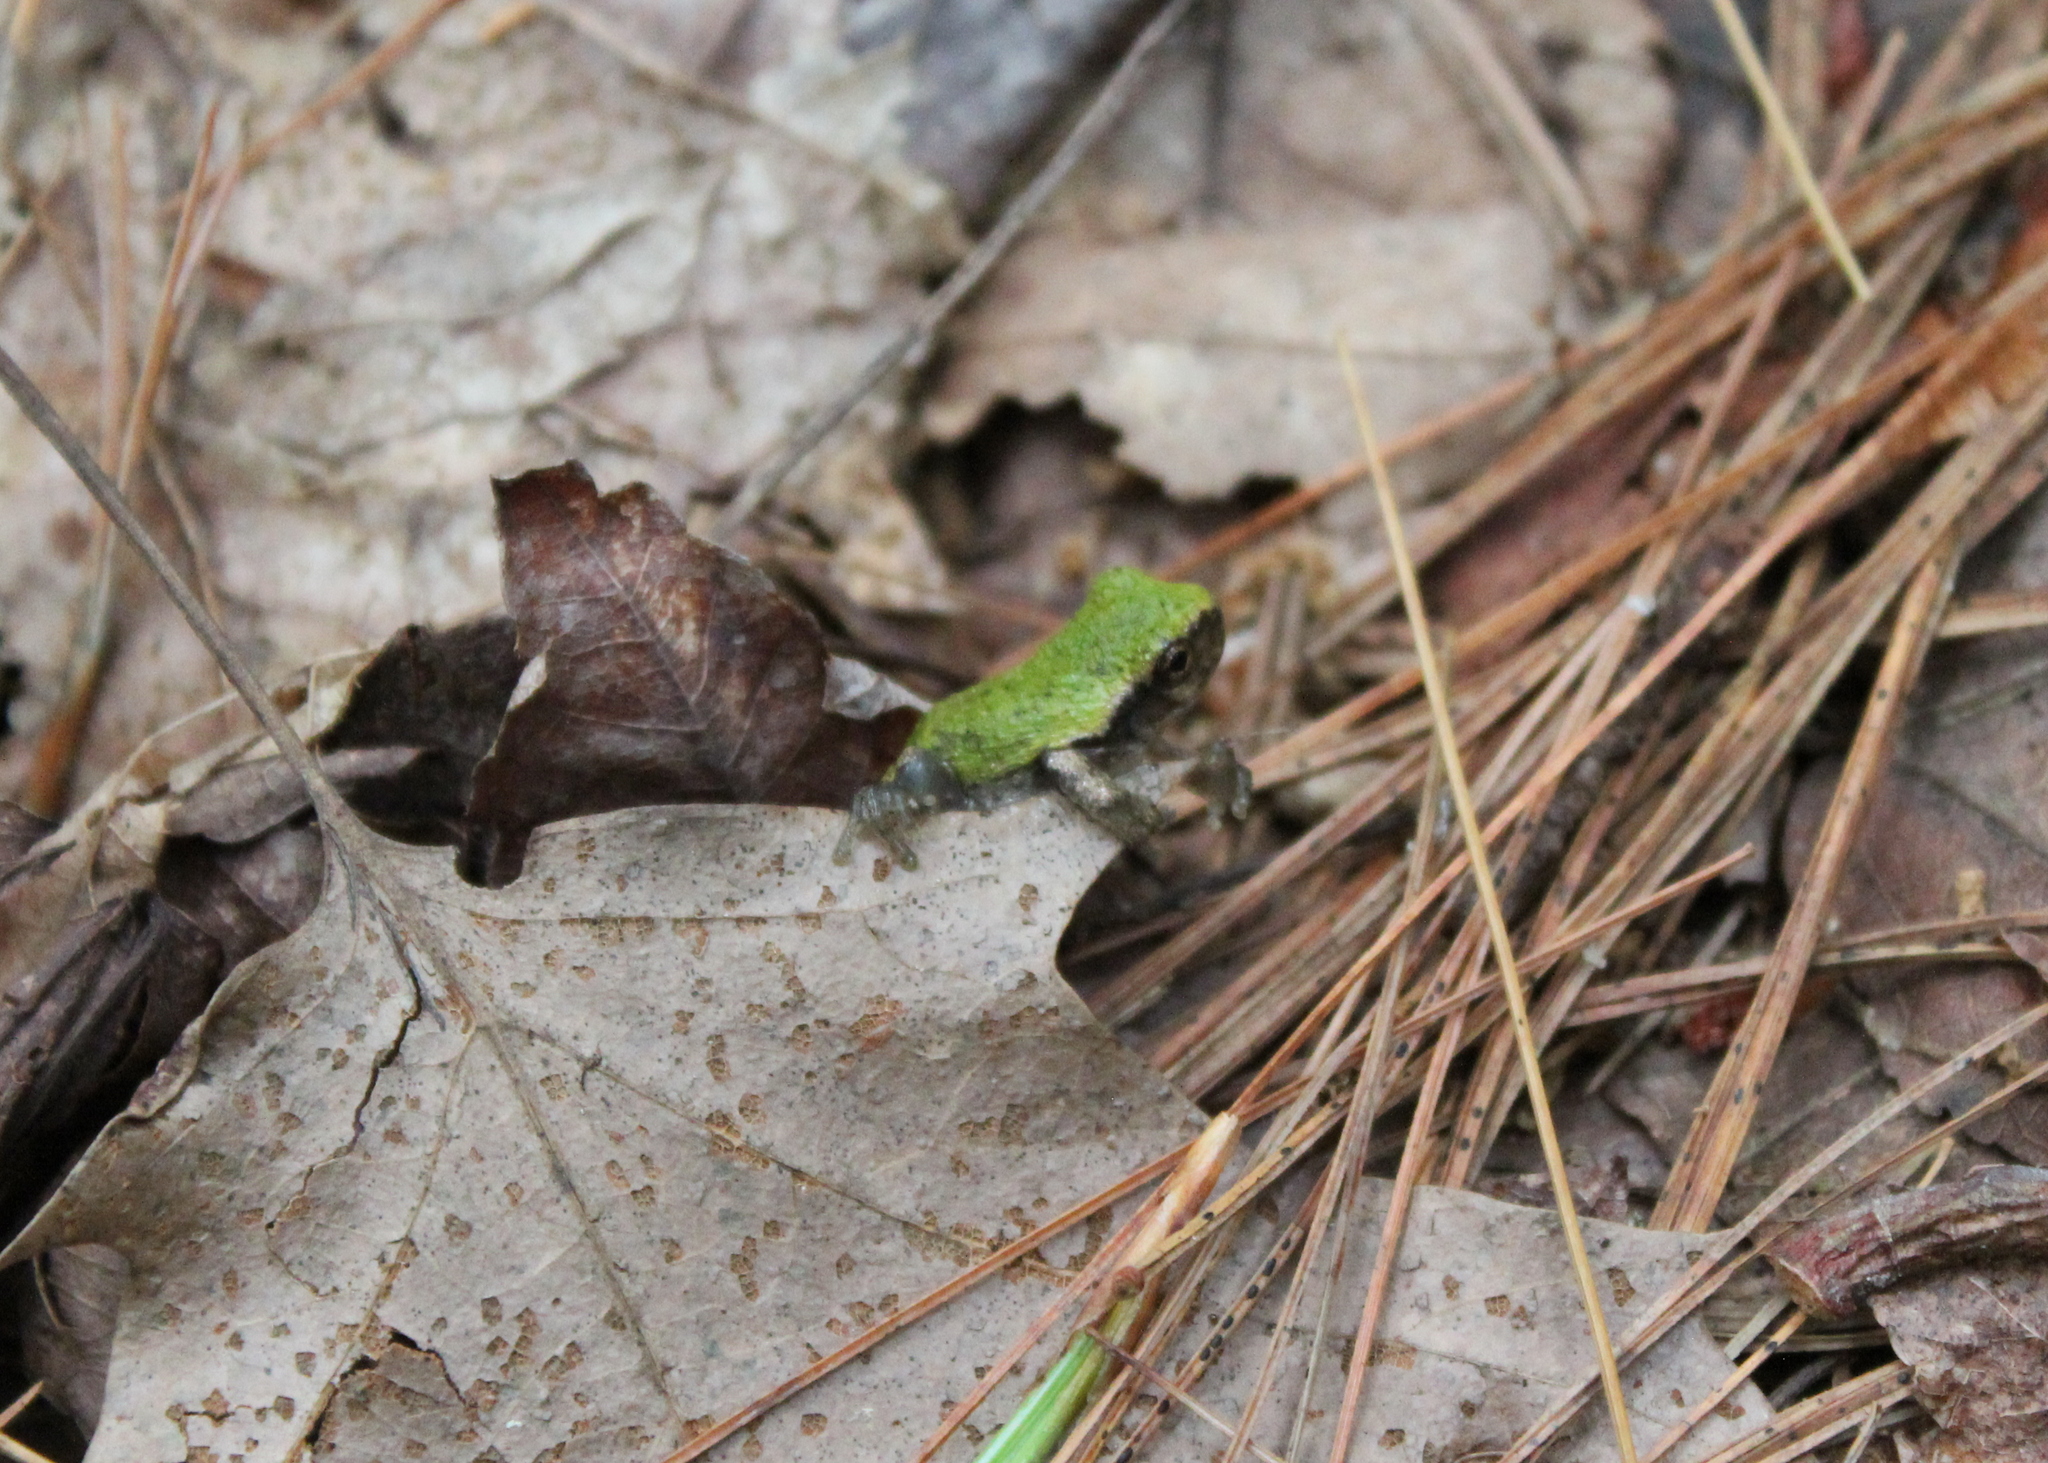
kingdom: Animalia
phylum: Chordata
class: Amphibia
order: Anura
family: Hylidae
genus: Dryophytes
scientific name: Dryophytes versicolor
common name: Gray treefrog
